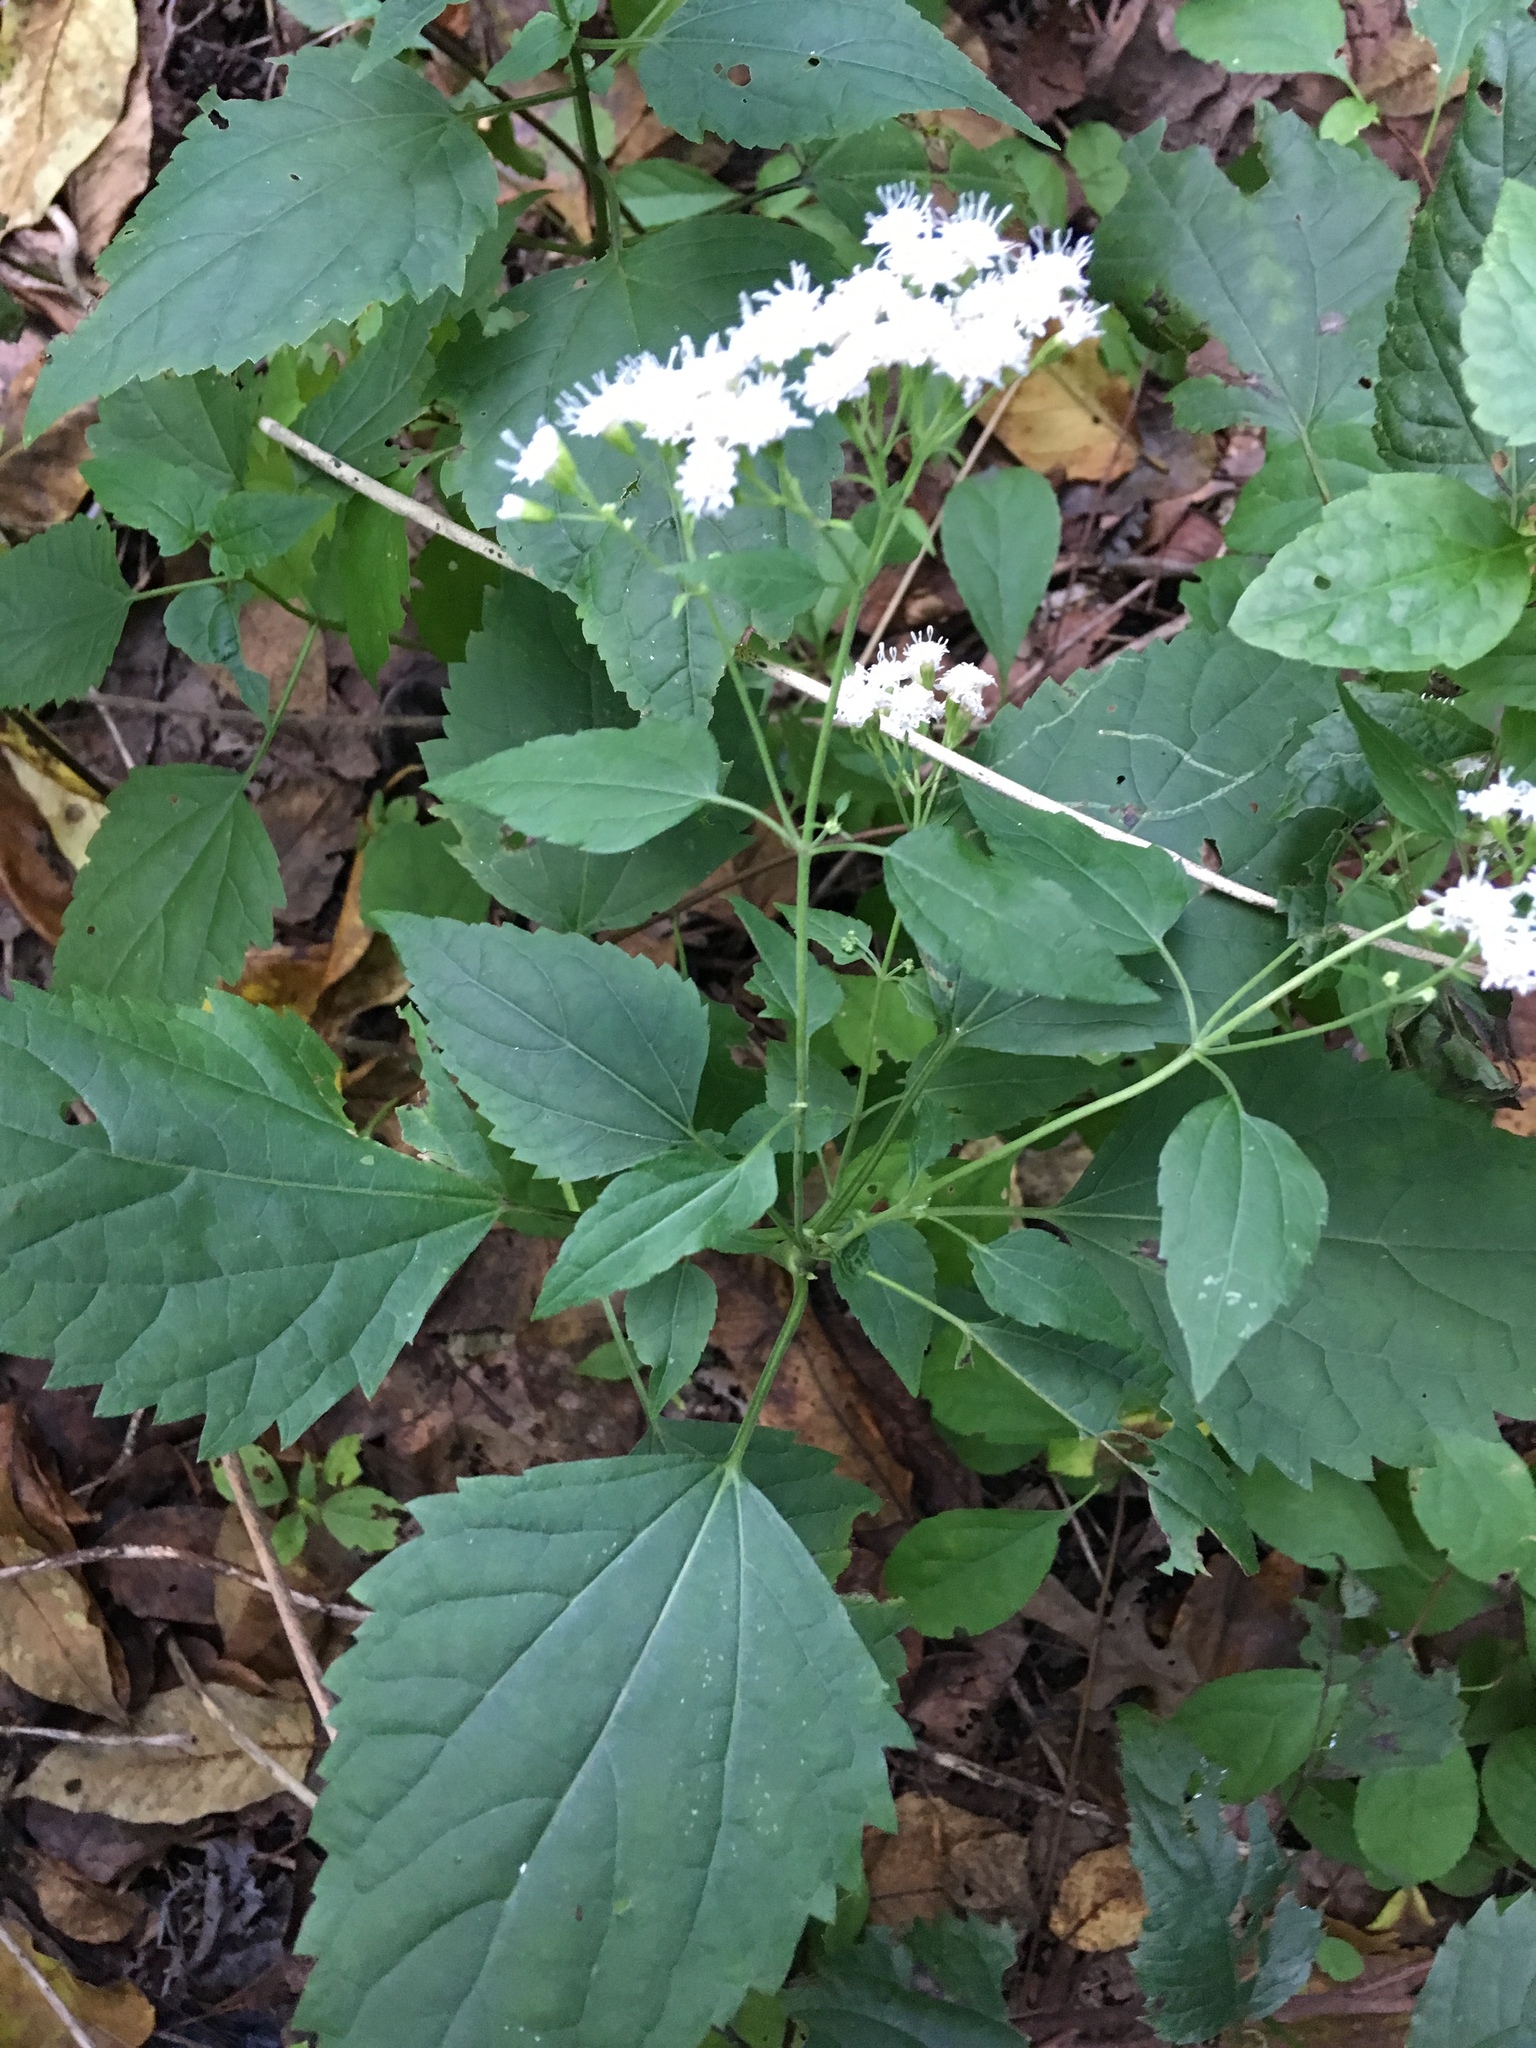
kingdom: Plantae
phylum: Tracheophyta
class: Magnoliopsida
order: Asterales
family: Asteraceae
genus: Ageratina
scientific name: Ageratina altissima
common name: White snakeroot
